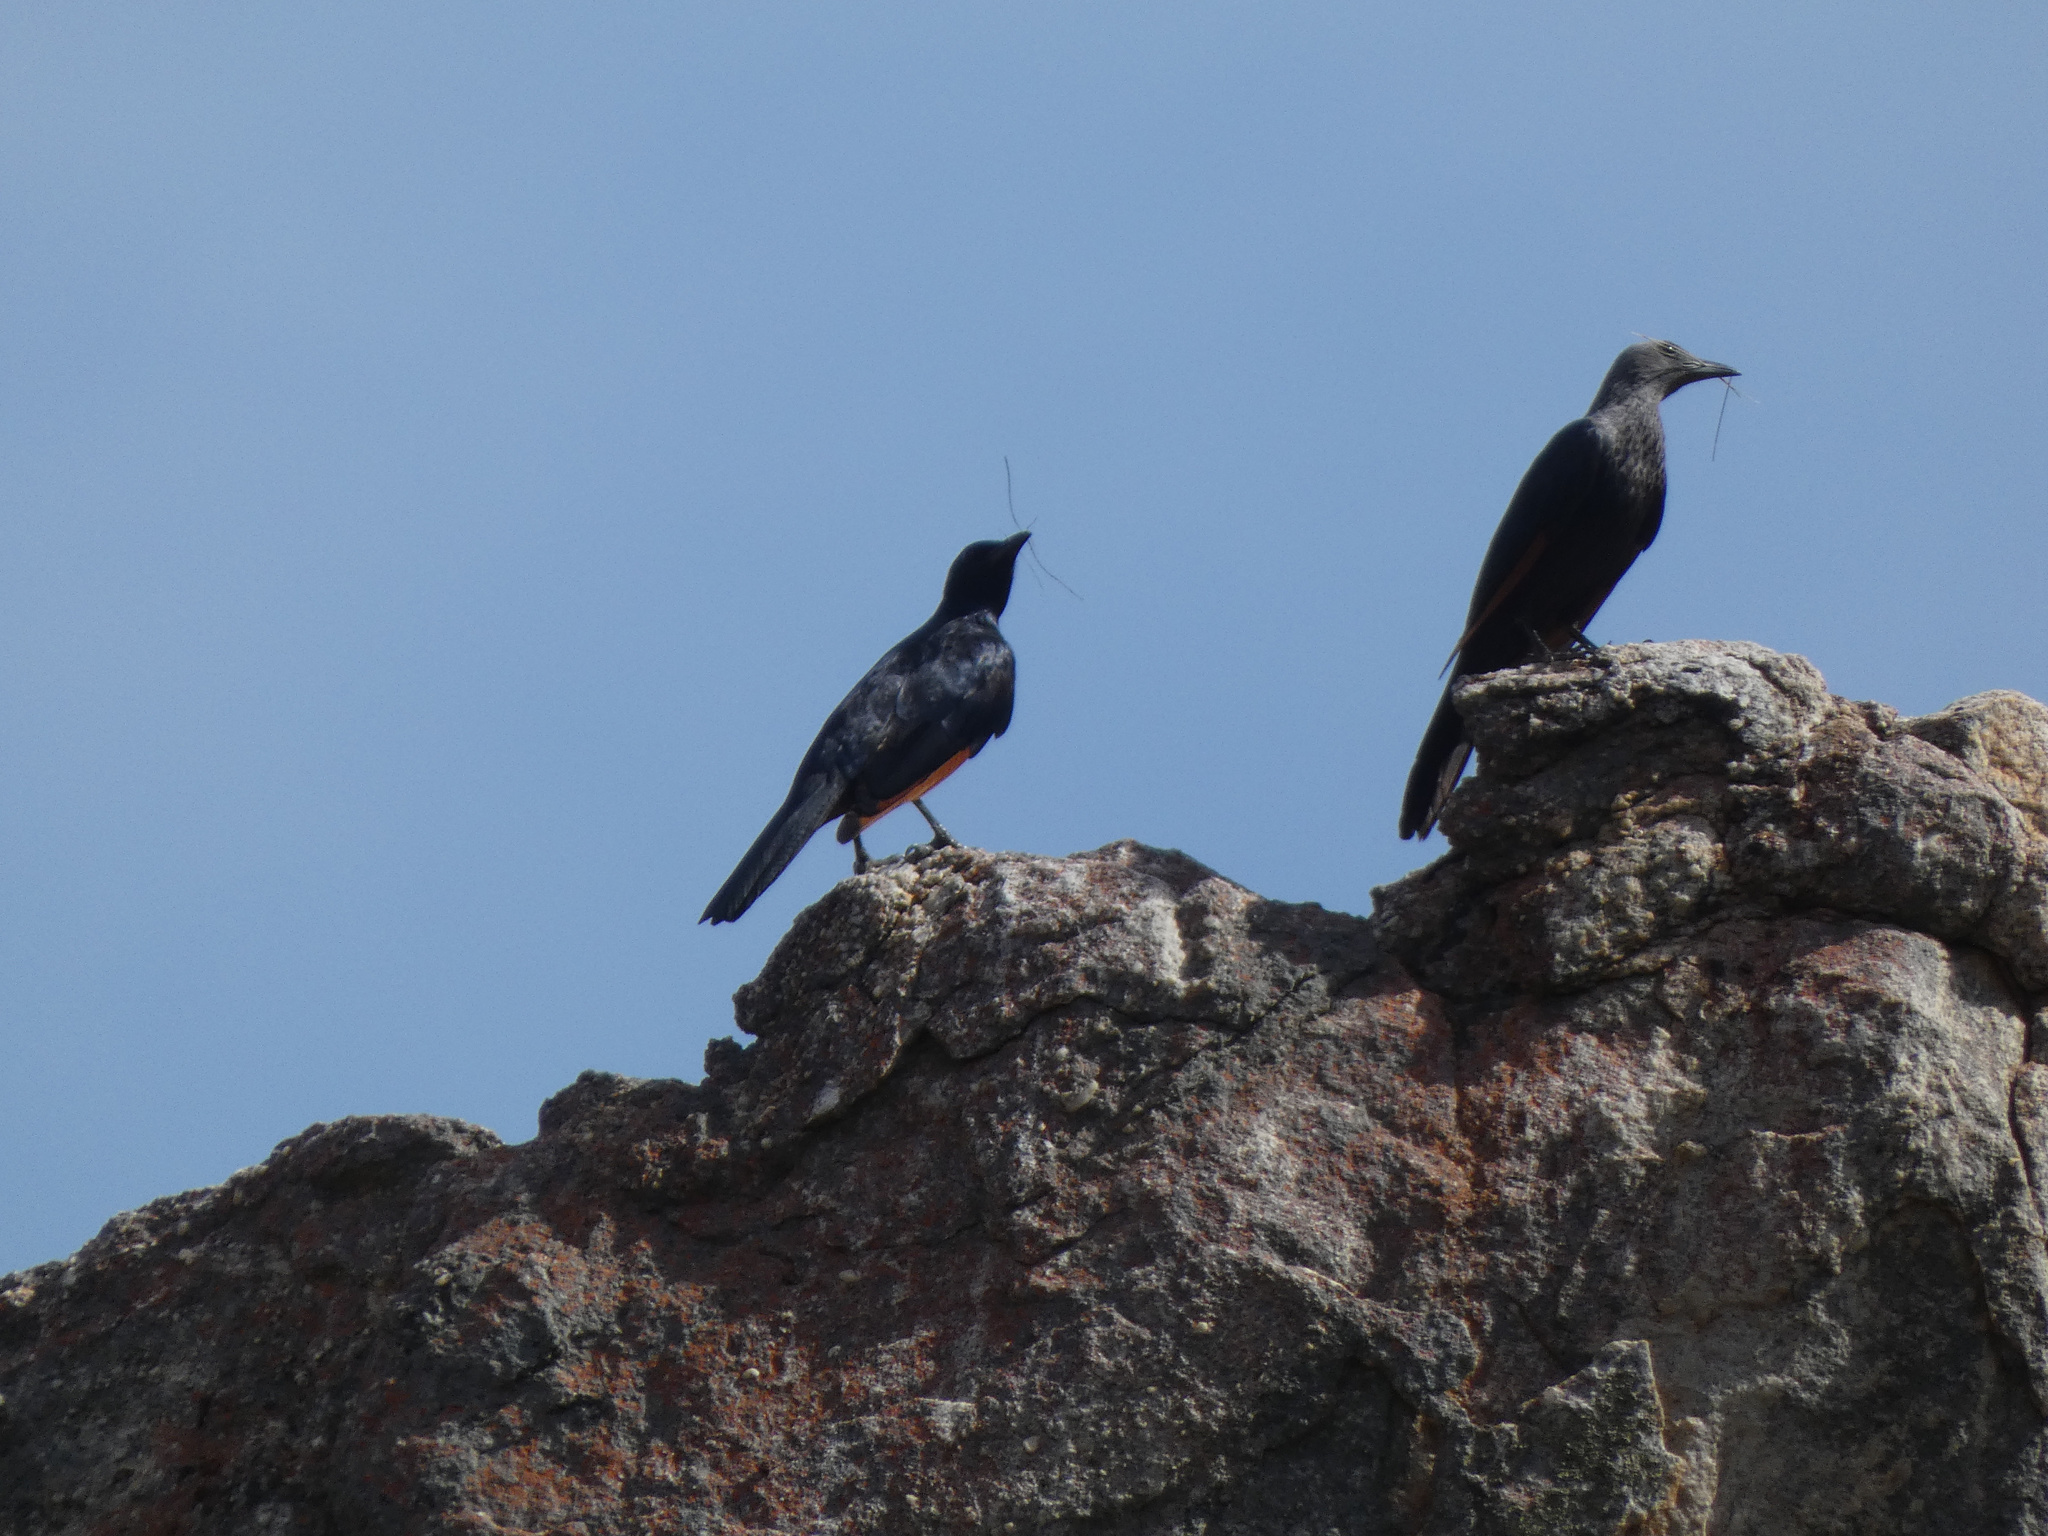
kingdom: Animalia
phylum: Chordata
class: Aves
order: Passeriformes
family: Sturnidae
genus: Onychognathus
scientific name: Onychognathus morio
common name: Red-winged starling
